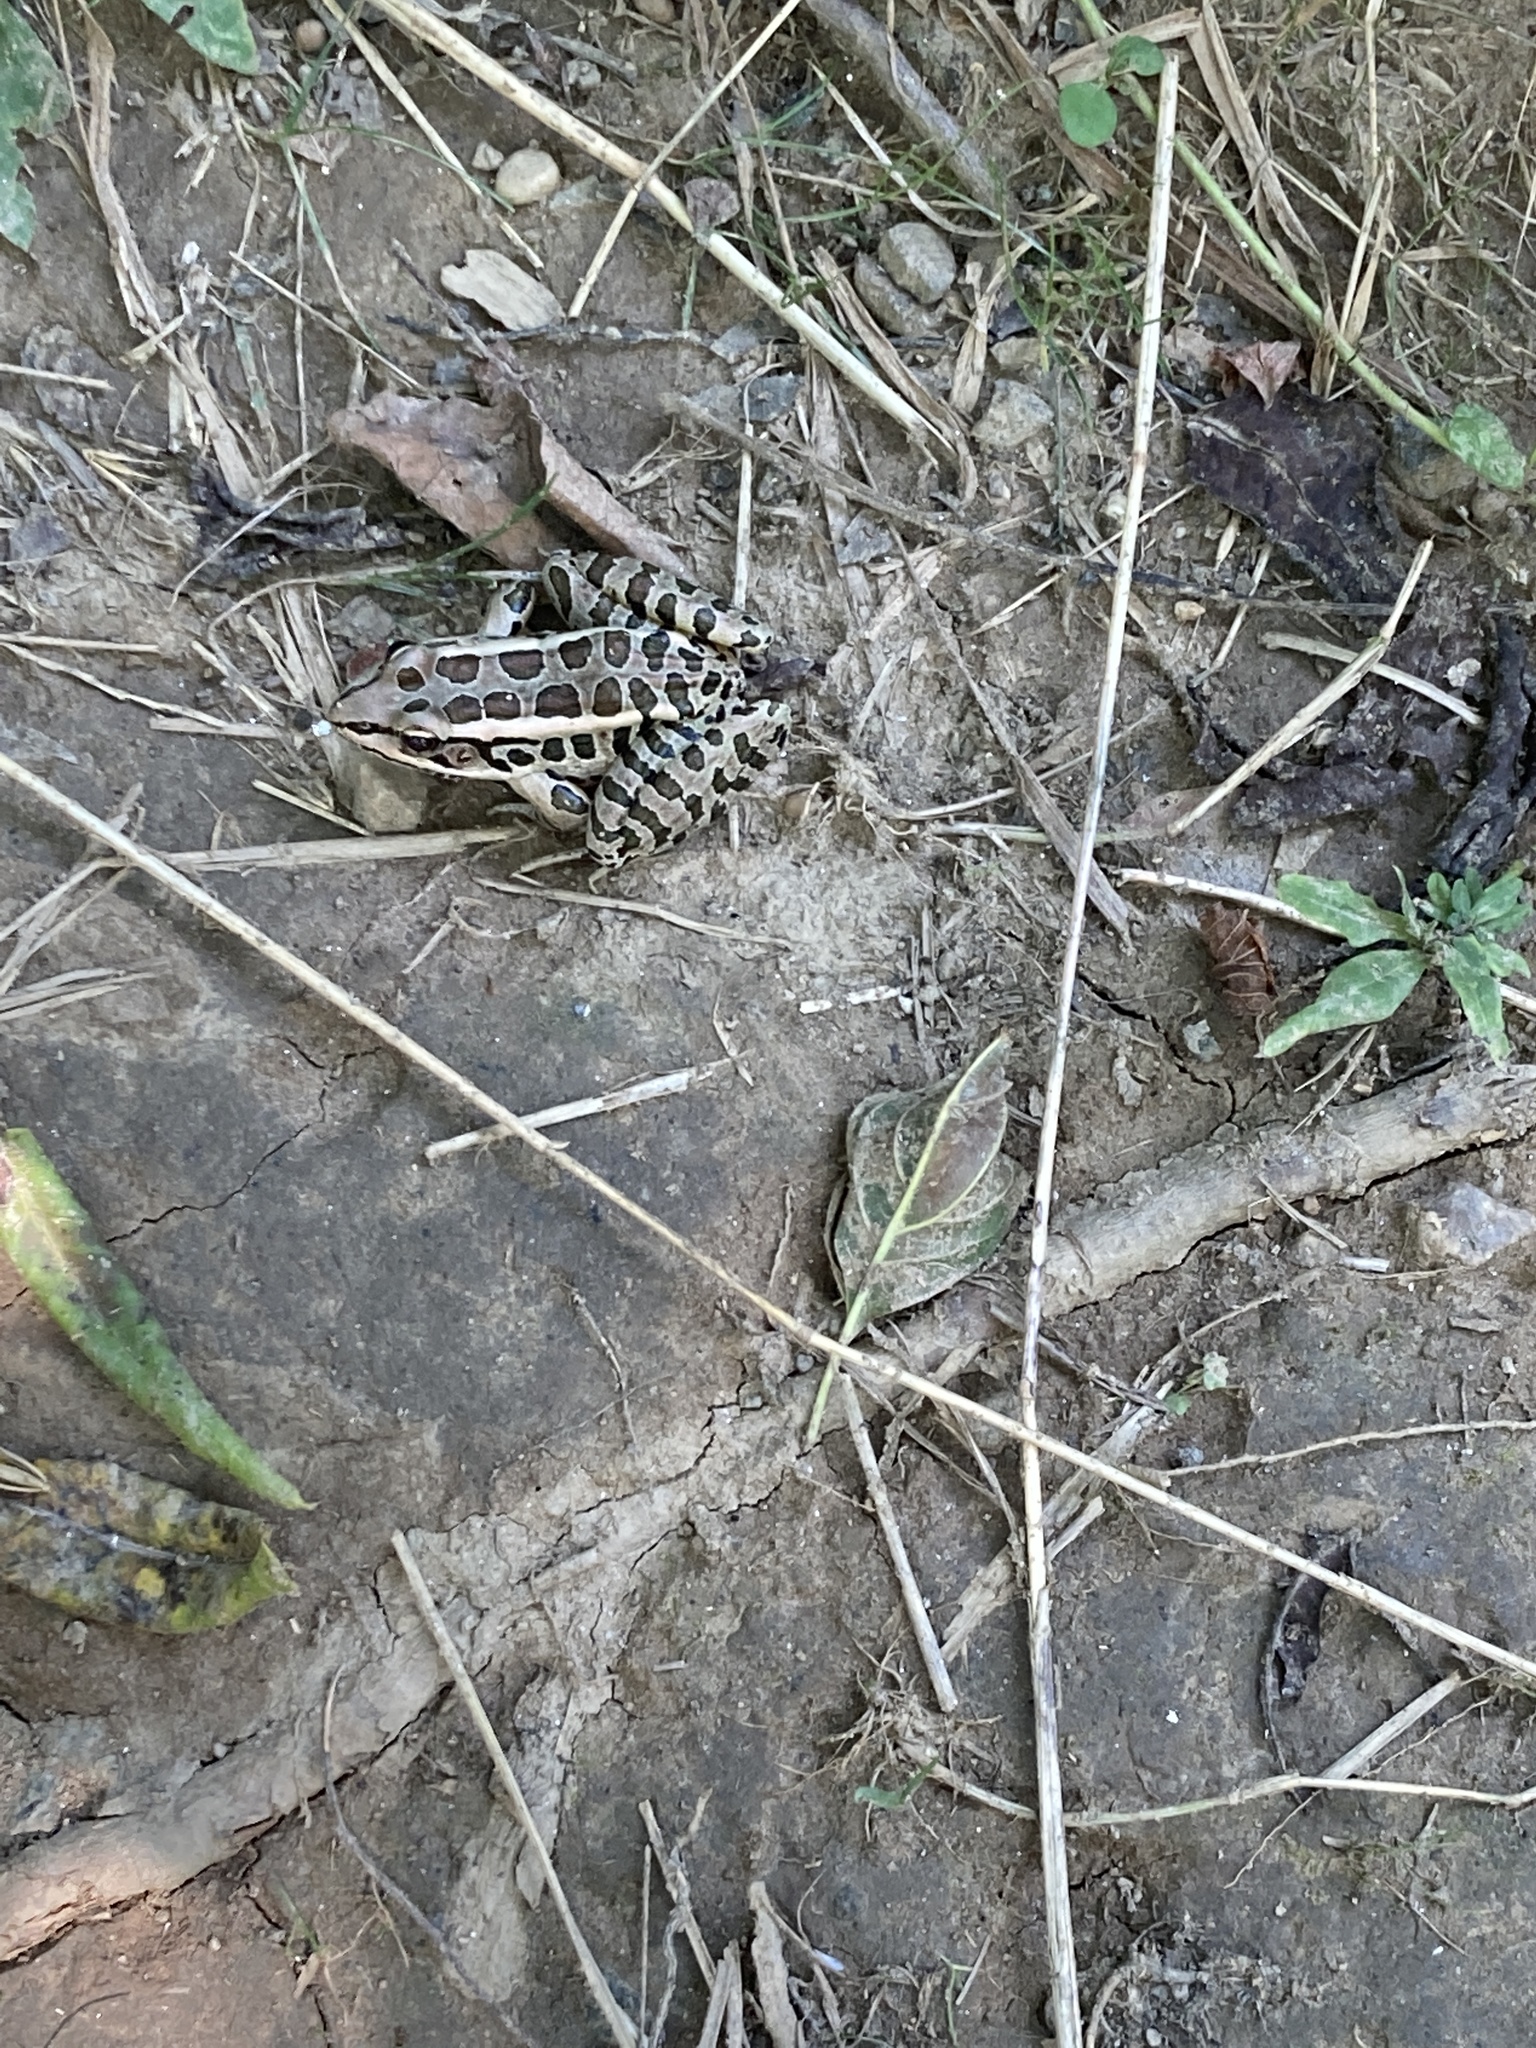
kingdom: Animalia
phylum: Chordata
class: Amphibia
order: Anura
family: Ranidae
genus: Lithobates
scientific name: Lithobates palustris
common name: Pickerel frog
